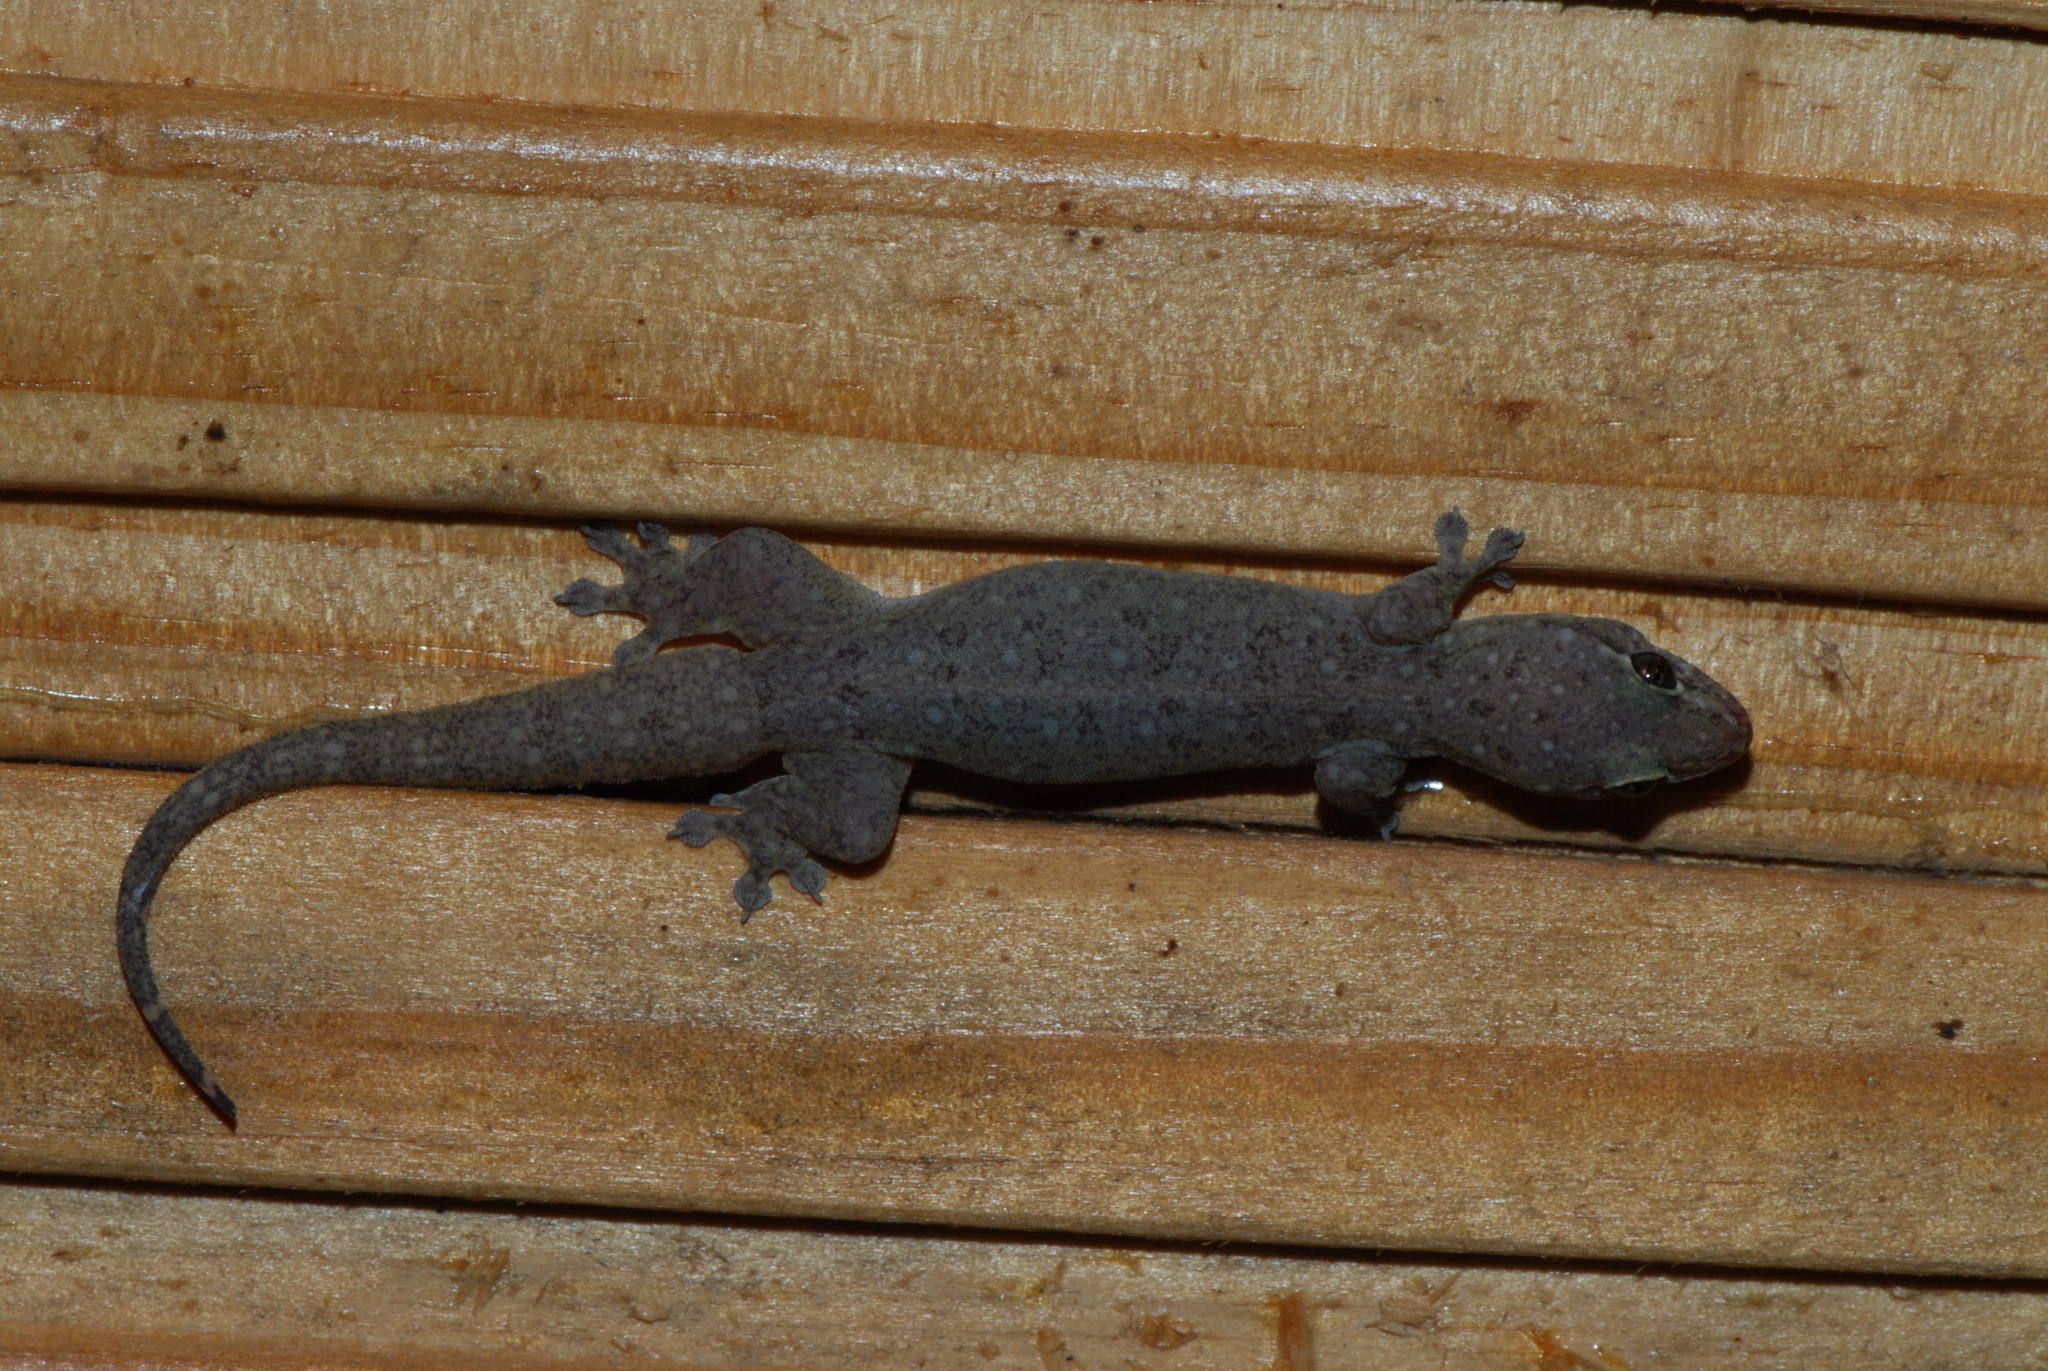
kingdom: Animalia
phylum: Chordata
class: Squamata
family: Gekkonidae
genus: Gehyra
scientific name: Gehyra mutilata
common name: Stump-toed gecko
